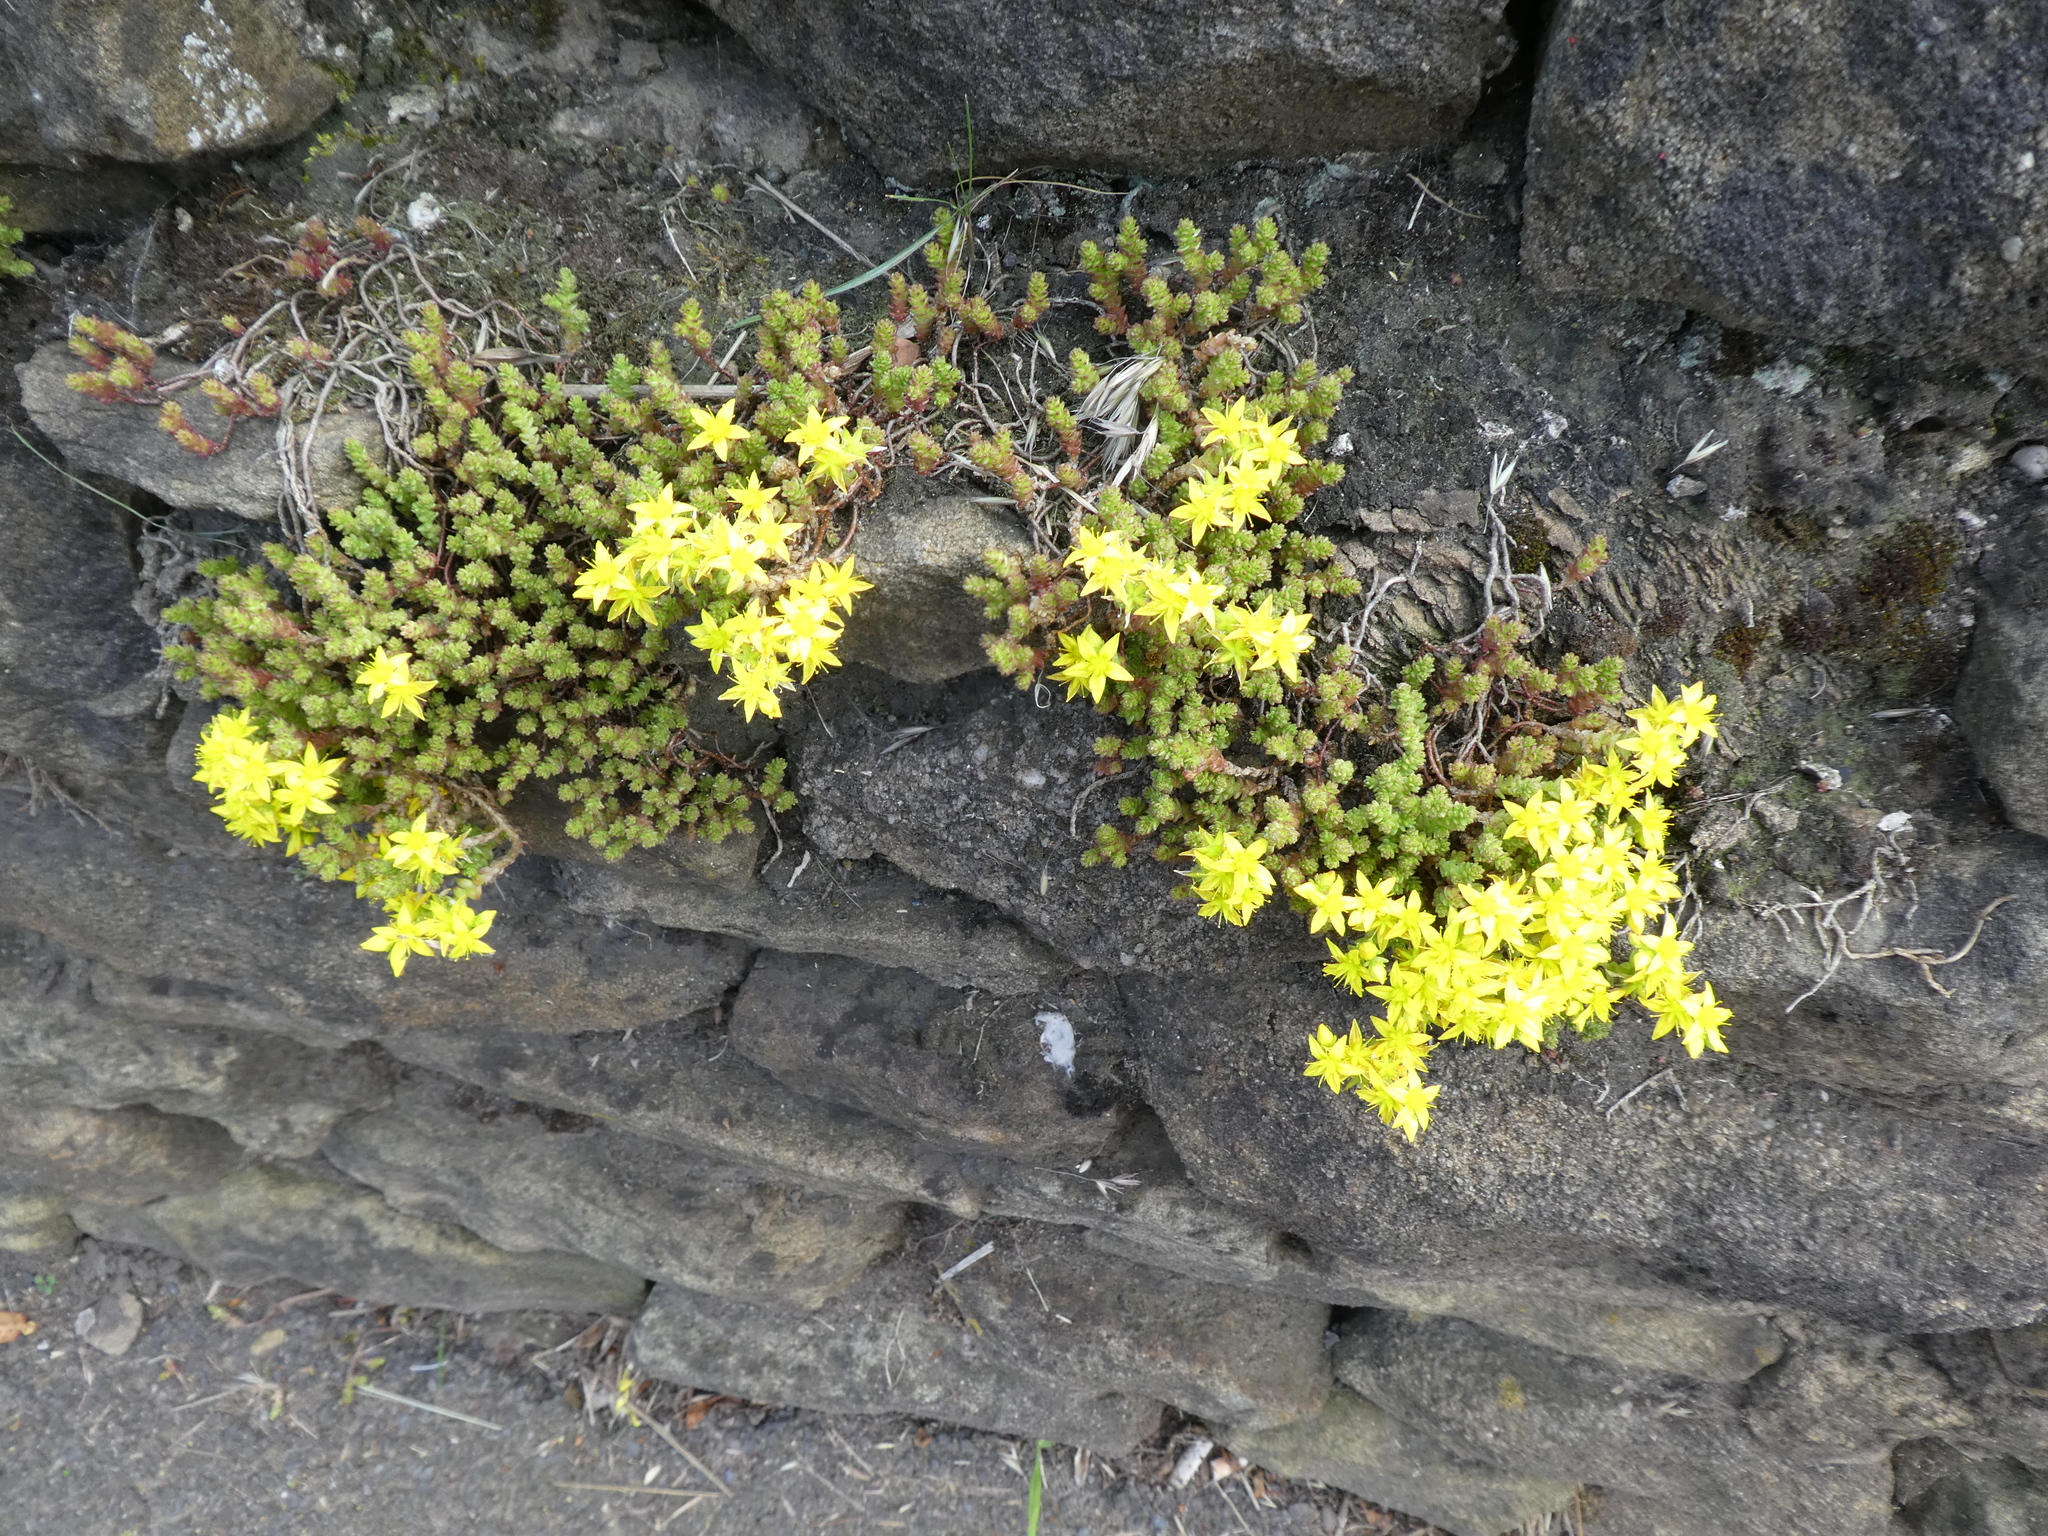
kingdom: Plantae
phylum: Tracheophyta
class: Magnoliopsida
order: Saxifragales
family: Crassulaceae
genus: Sedum
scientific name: Sedum acre
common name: Biting stonecrop
